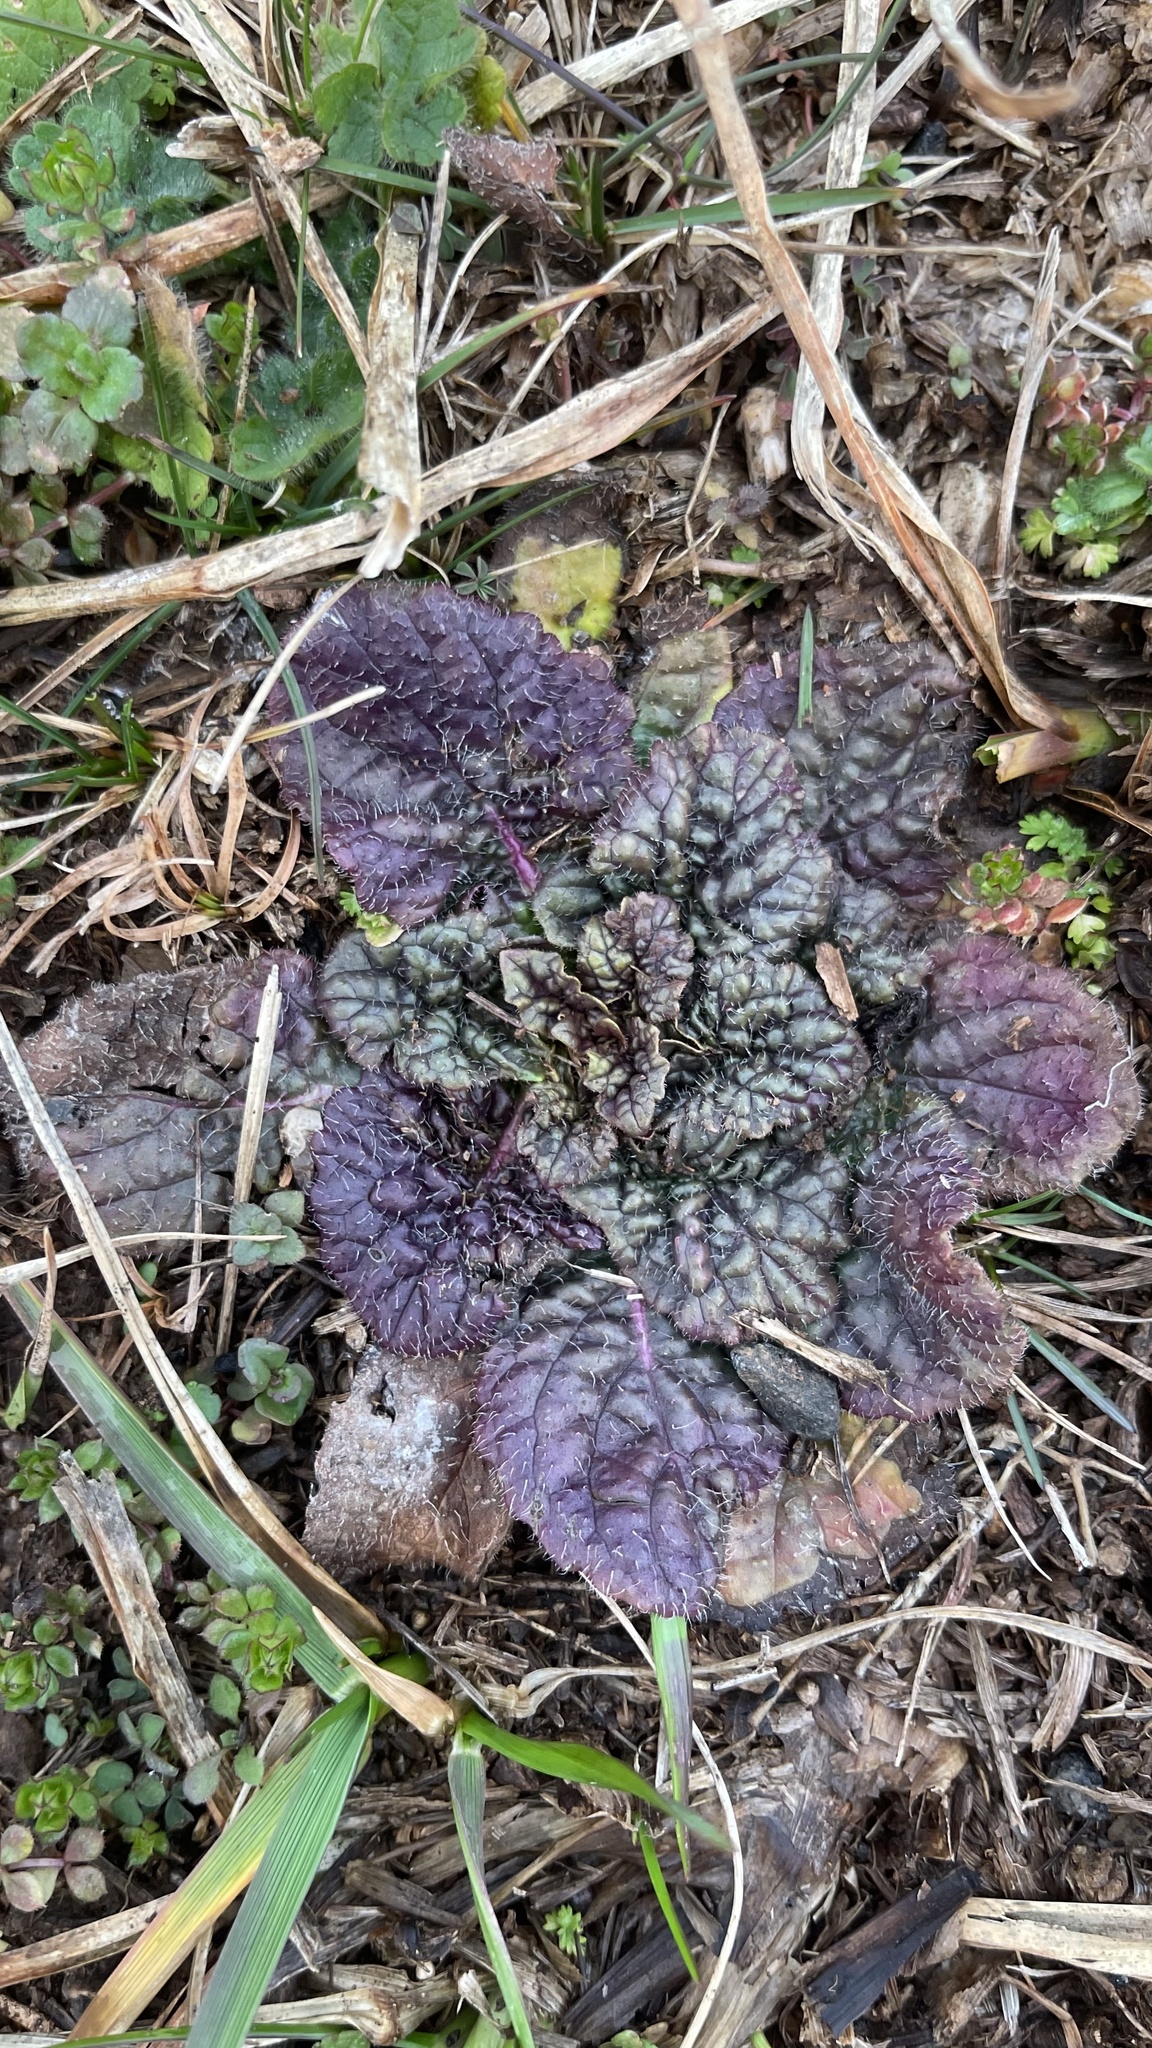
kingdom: Plantae
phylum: Tracheophyta
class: Magnoliopsida
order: Lamiales
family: Lamiaceae
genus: Salvia
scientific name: Salvia lyrata
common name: Cancerweed
